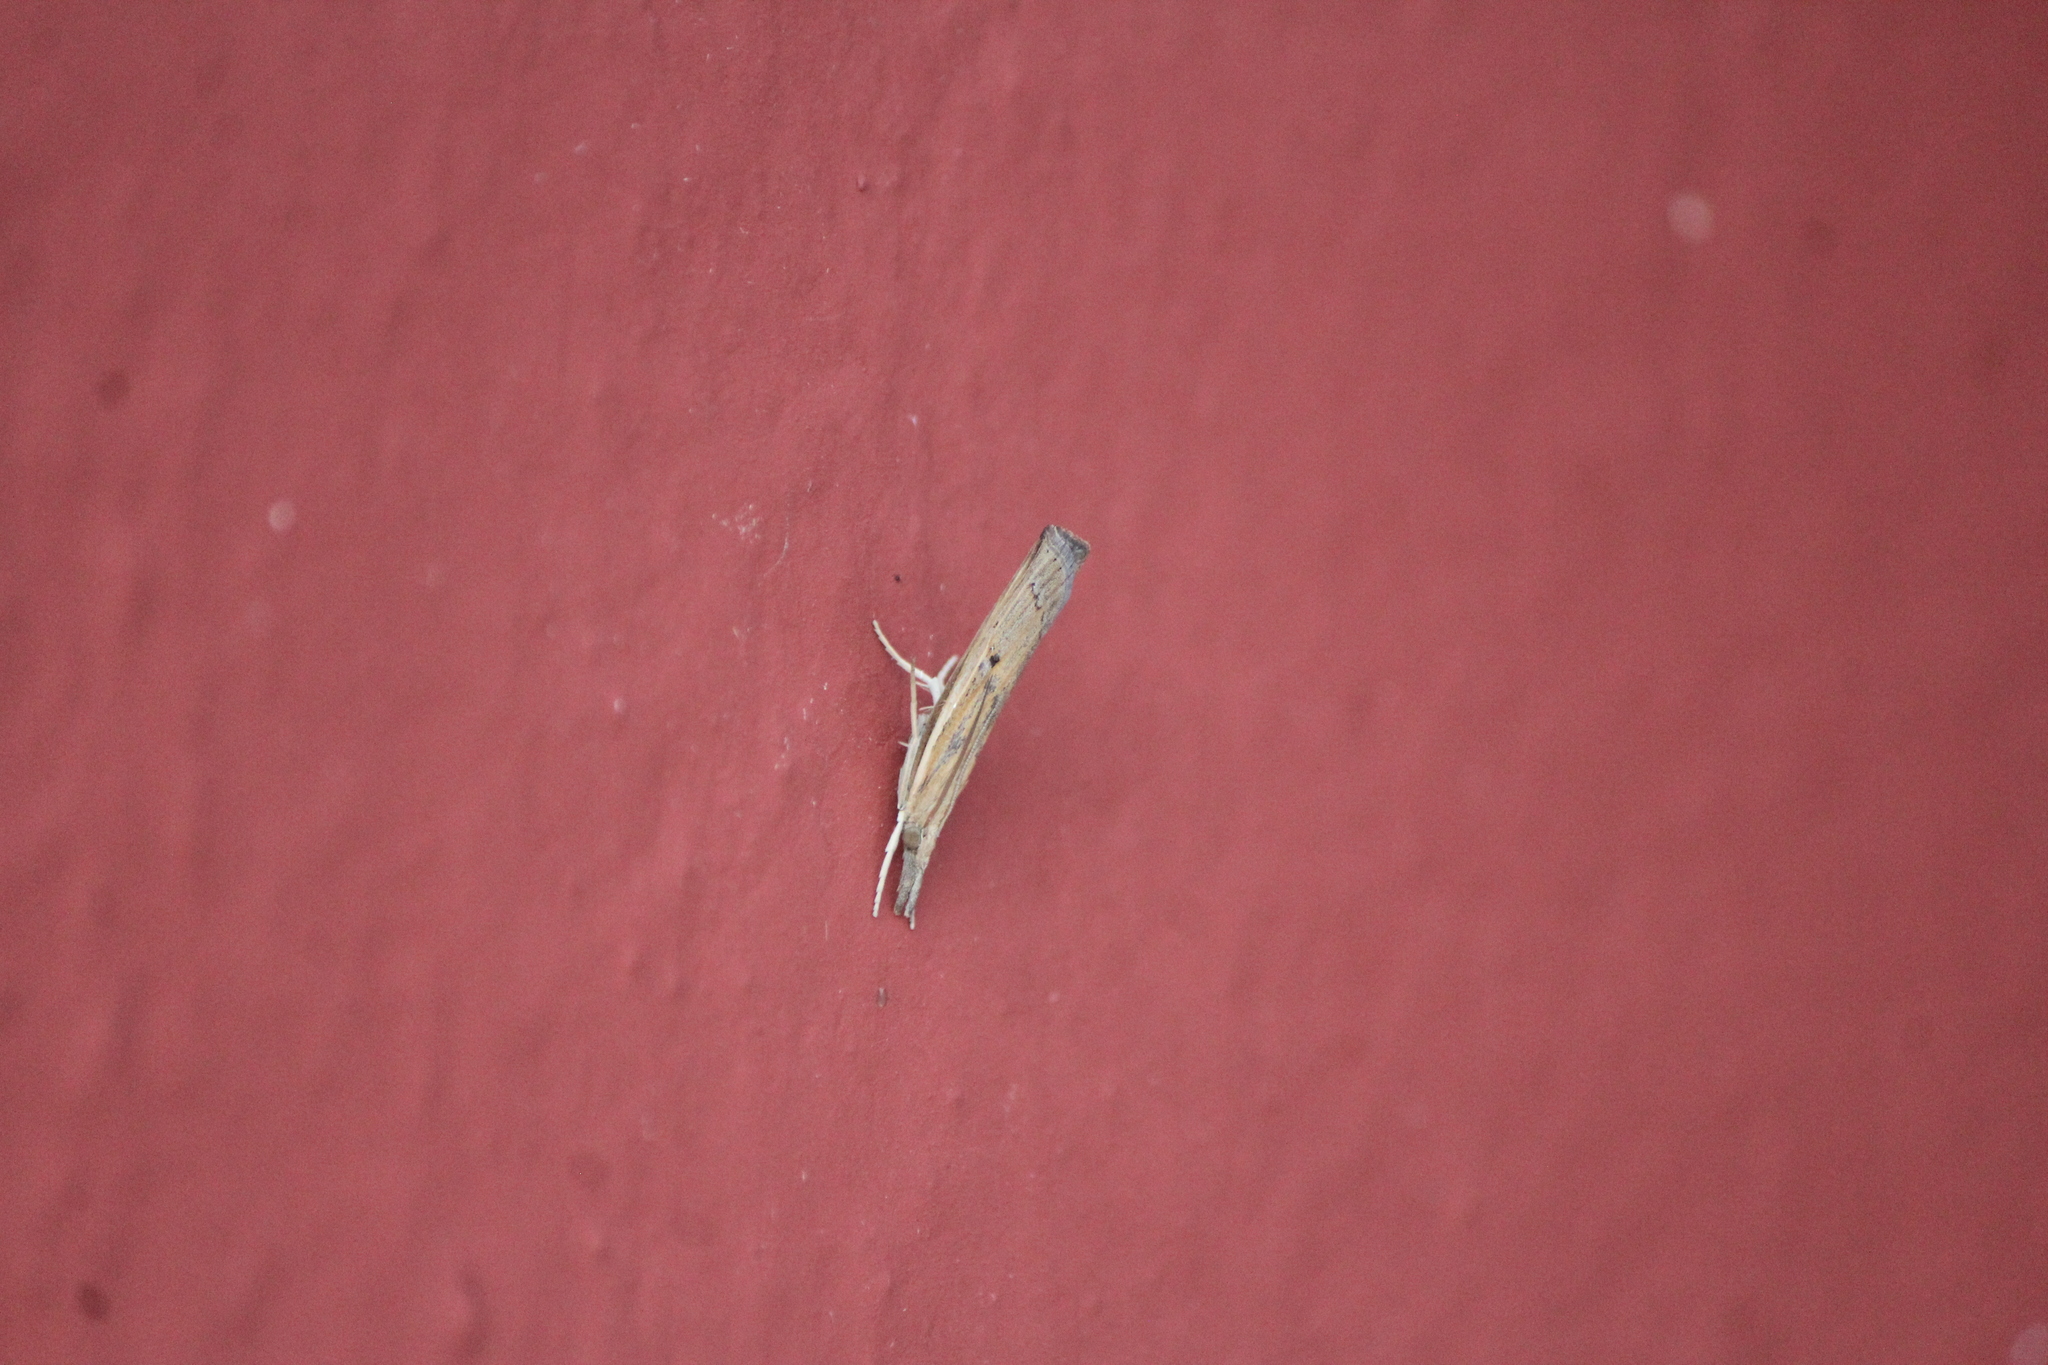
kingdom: Animalia
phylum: Arthropoda
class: Insecta
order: Lepidoptera
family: Crambidae
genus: Fissicrambus
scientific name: Fissicrambus fissiradiellus
